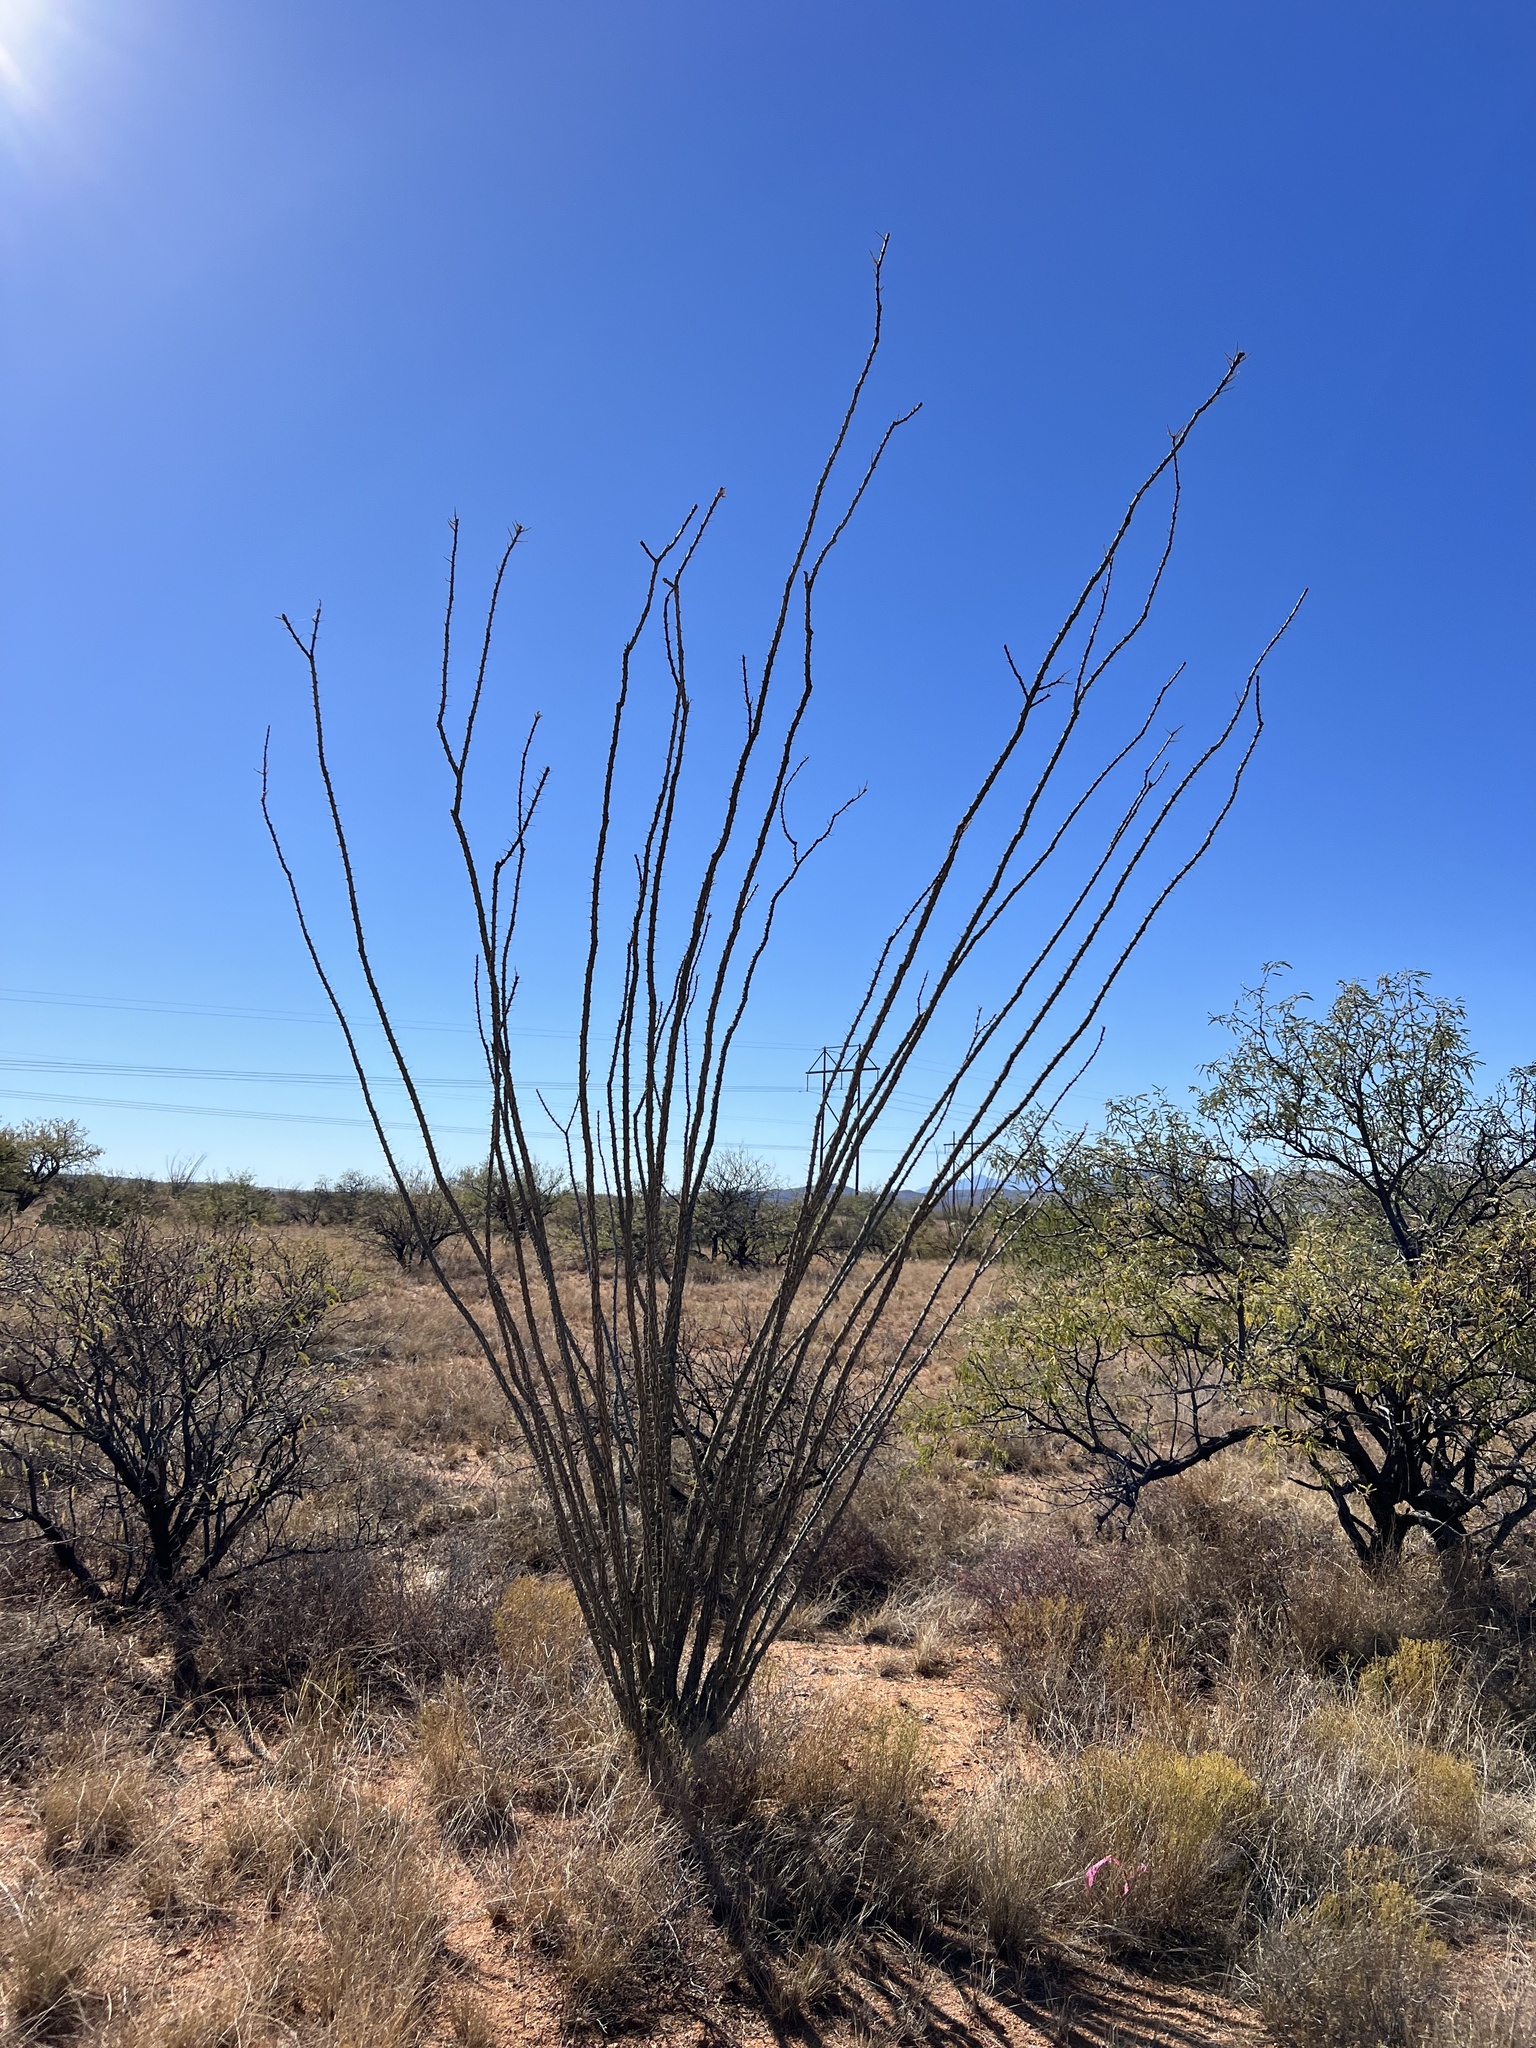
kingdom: Plantae
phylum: Tracheophyta
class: Magnoliopsida
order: Ericales
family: Fouquieriaceae
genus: Fouquieria
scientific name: Fouquieria splendens
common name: Vine-cactus
